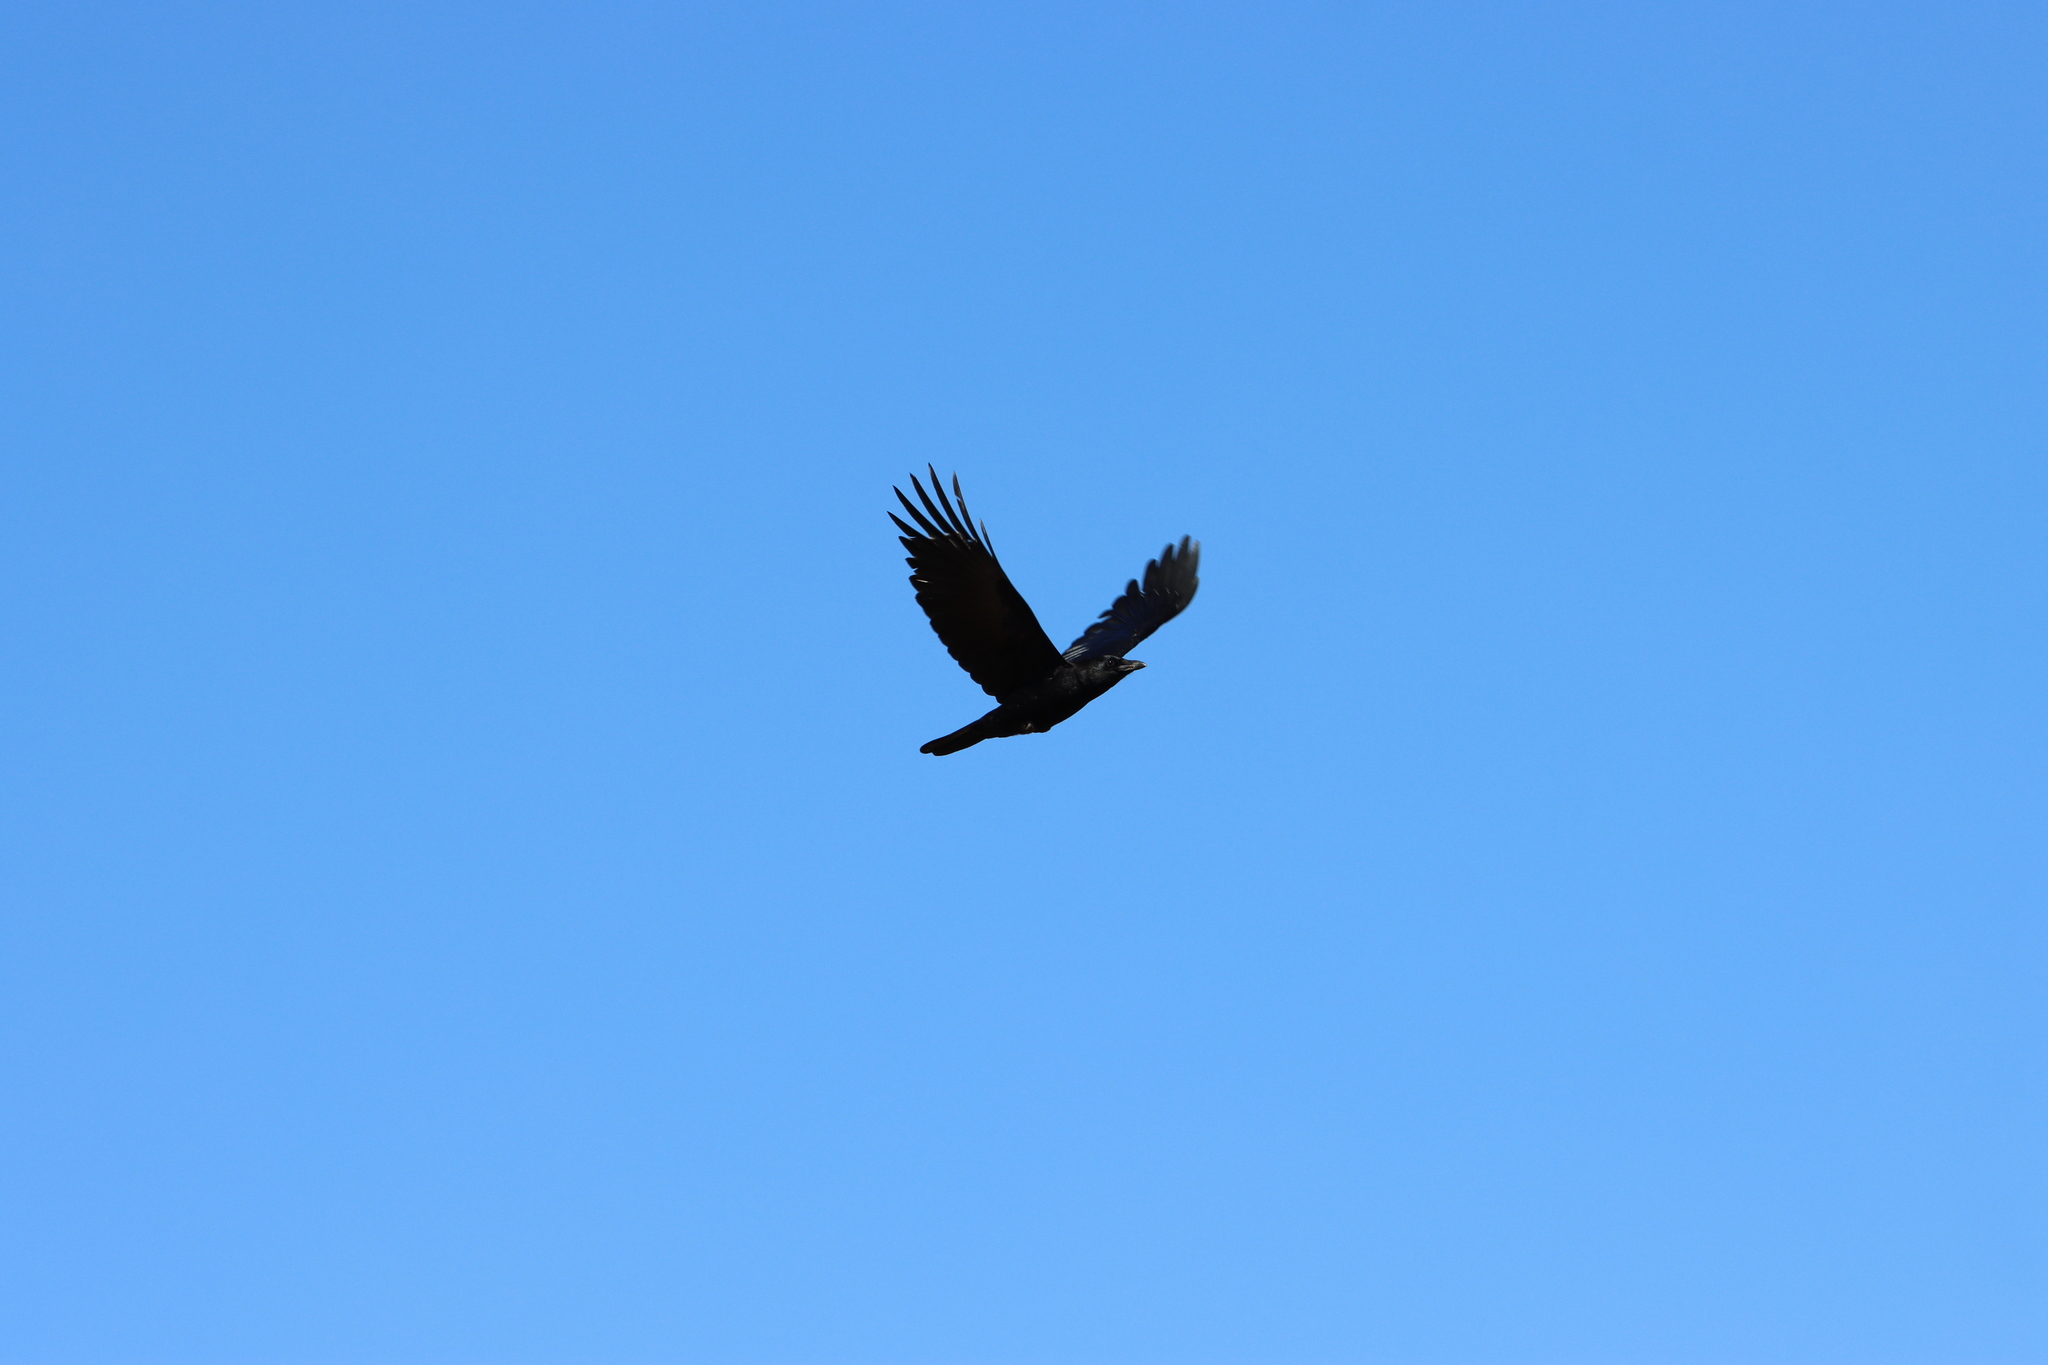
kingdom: Animalia
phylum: Chordata
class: Aves
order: Passeriformes
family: Corvidae
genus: Corvus
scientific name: Corvus brachyrhynchos
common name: American crow
